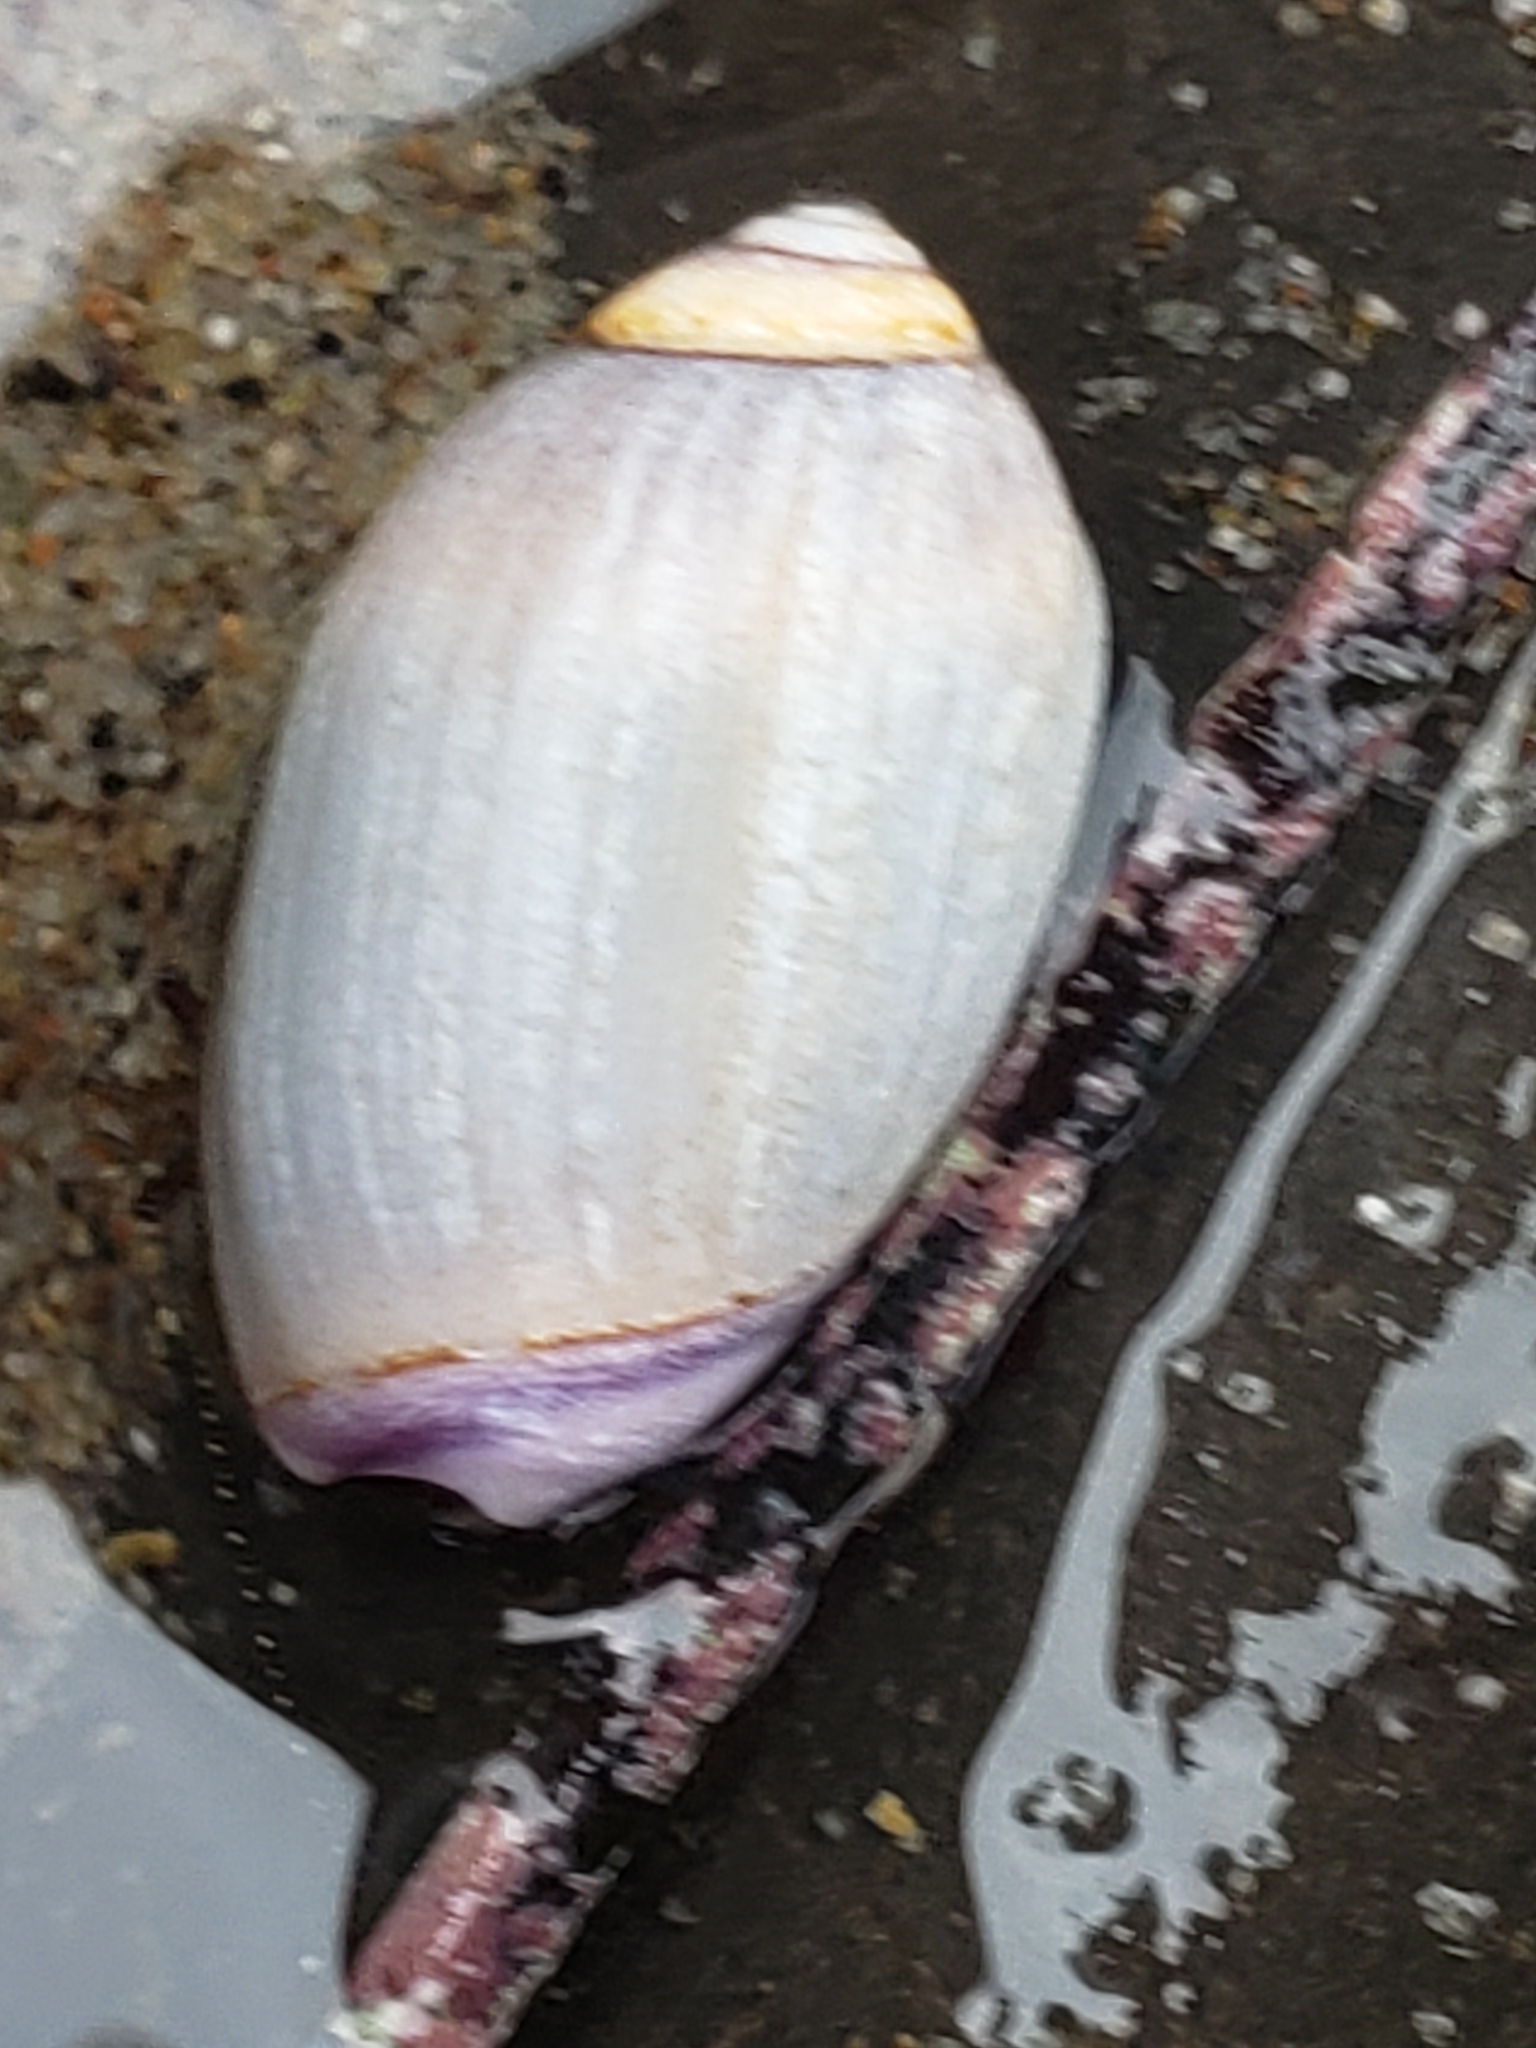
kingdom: Animalia
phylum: Mollusca
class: Gastropoda
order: Neogastropoda
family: Olividae
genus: Callianax
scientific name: Callianax biplicata
